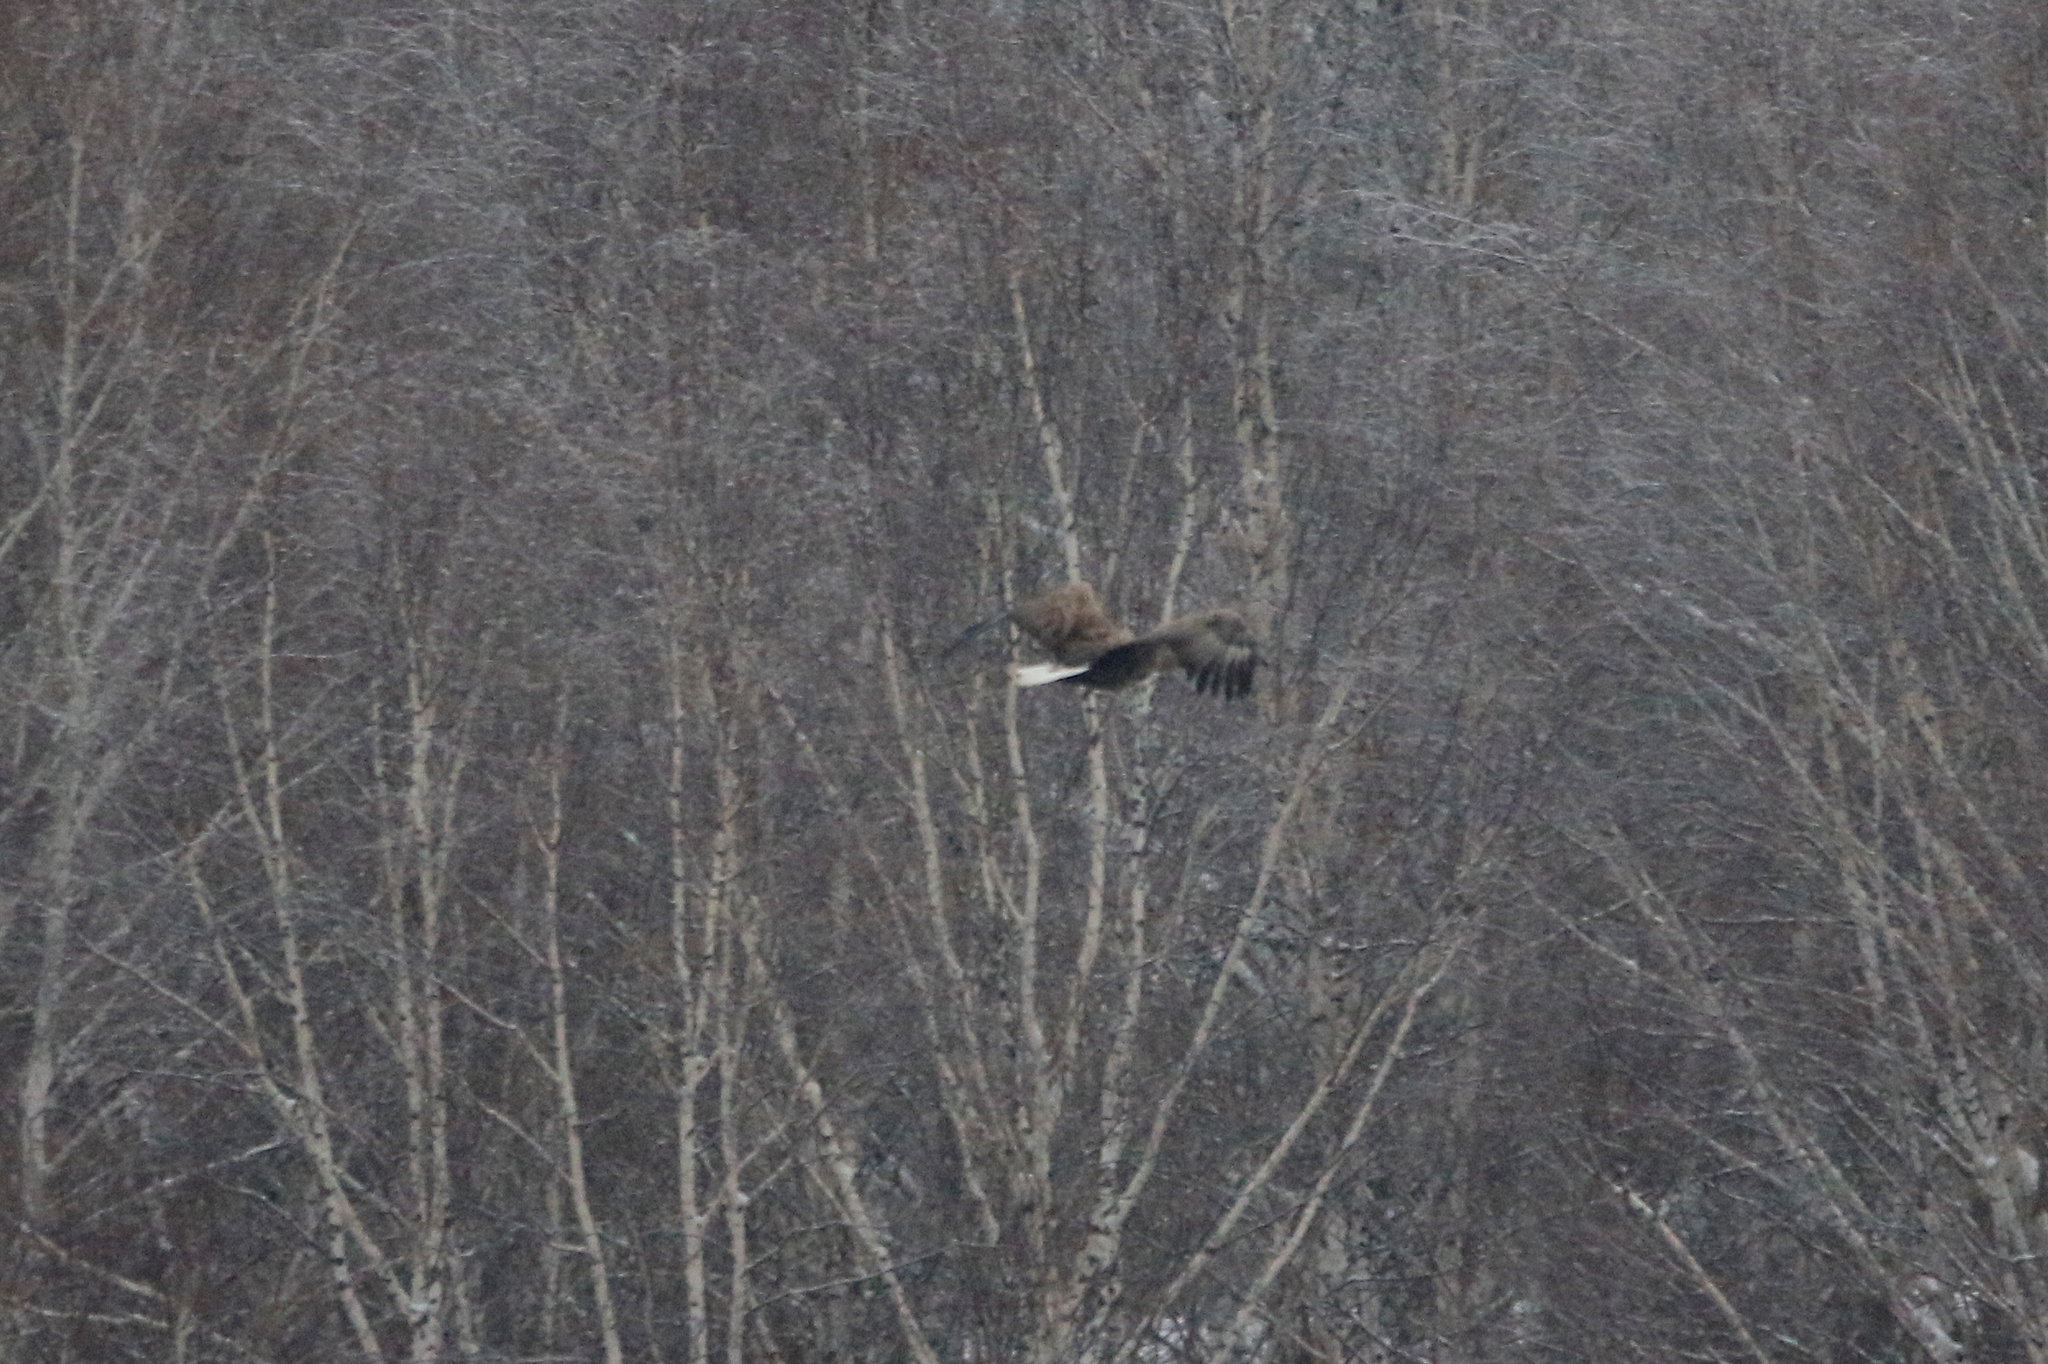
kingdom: Animalia
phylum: Chordata
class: Aves
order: Accipitriformes
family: Accipitridae
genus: Haliaeetus
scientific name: Haliaeetus albicilla
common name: White-tailed eagle
